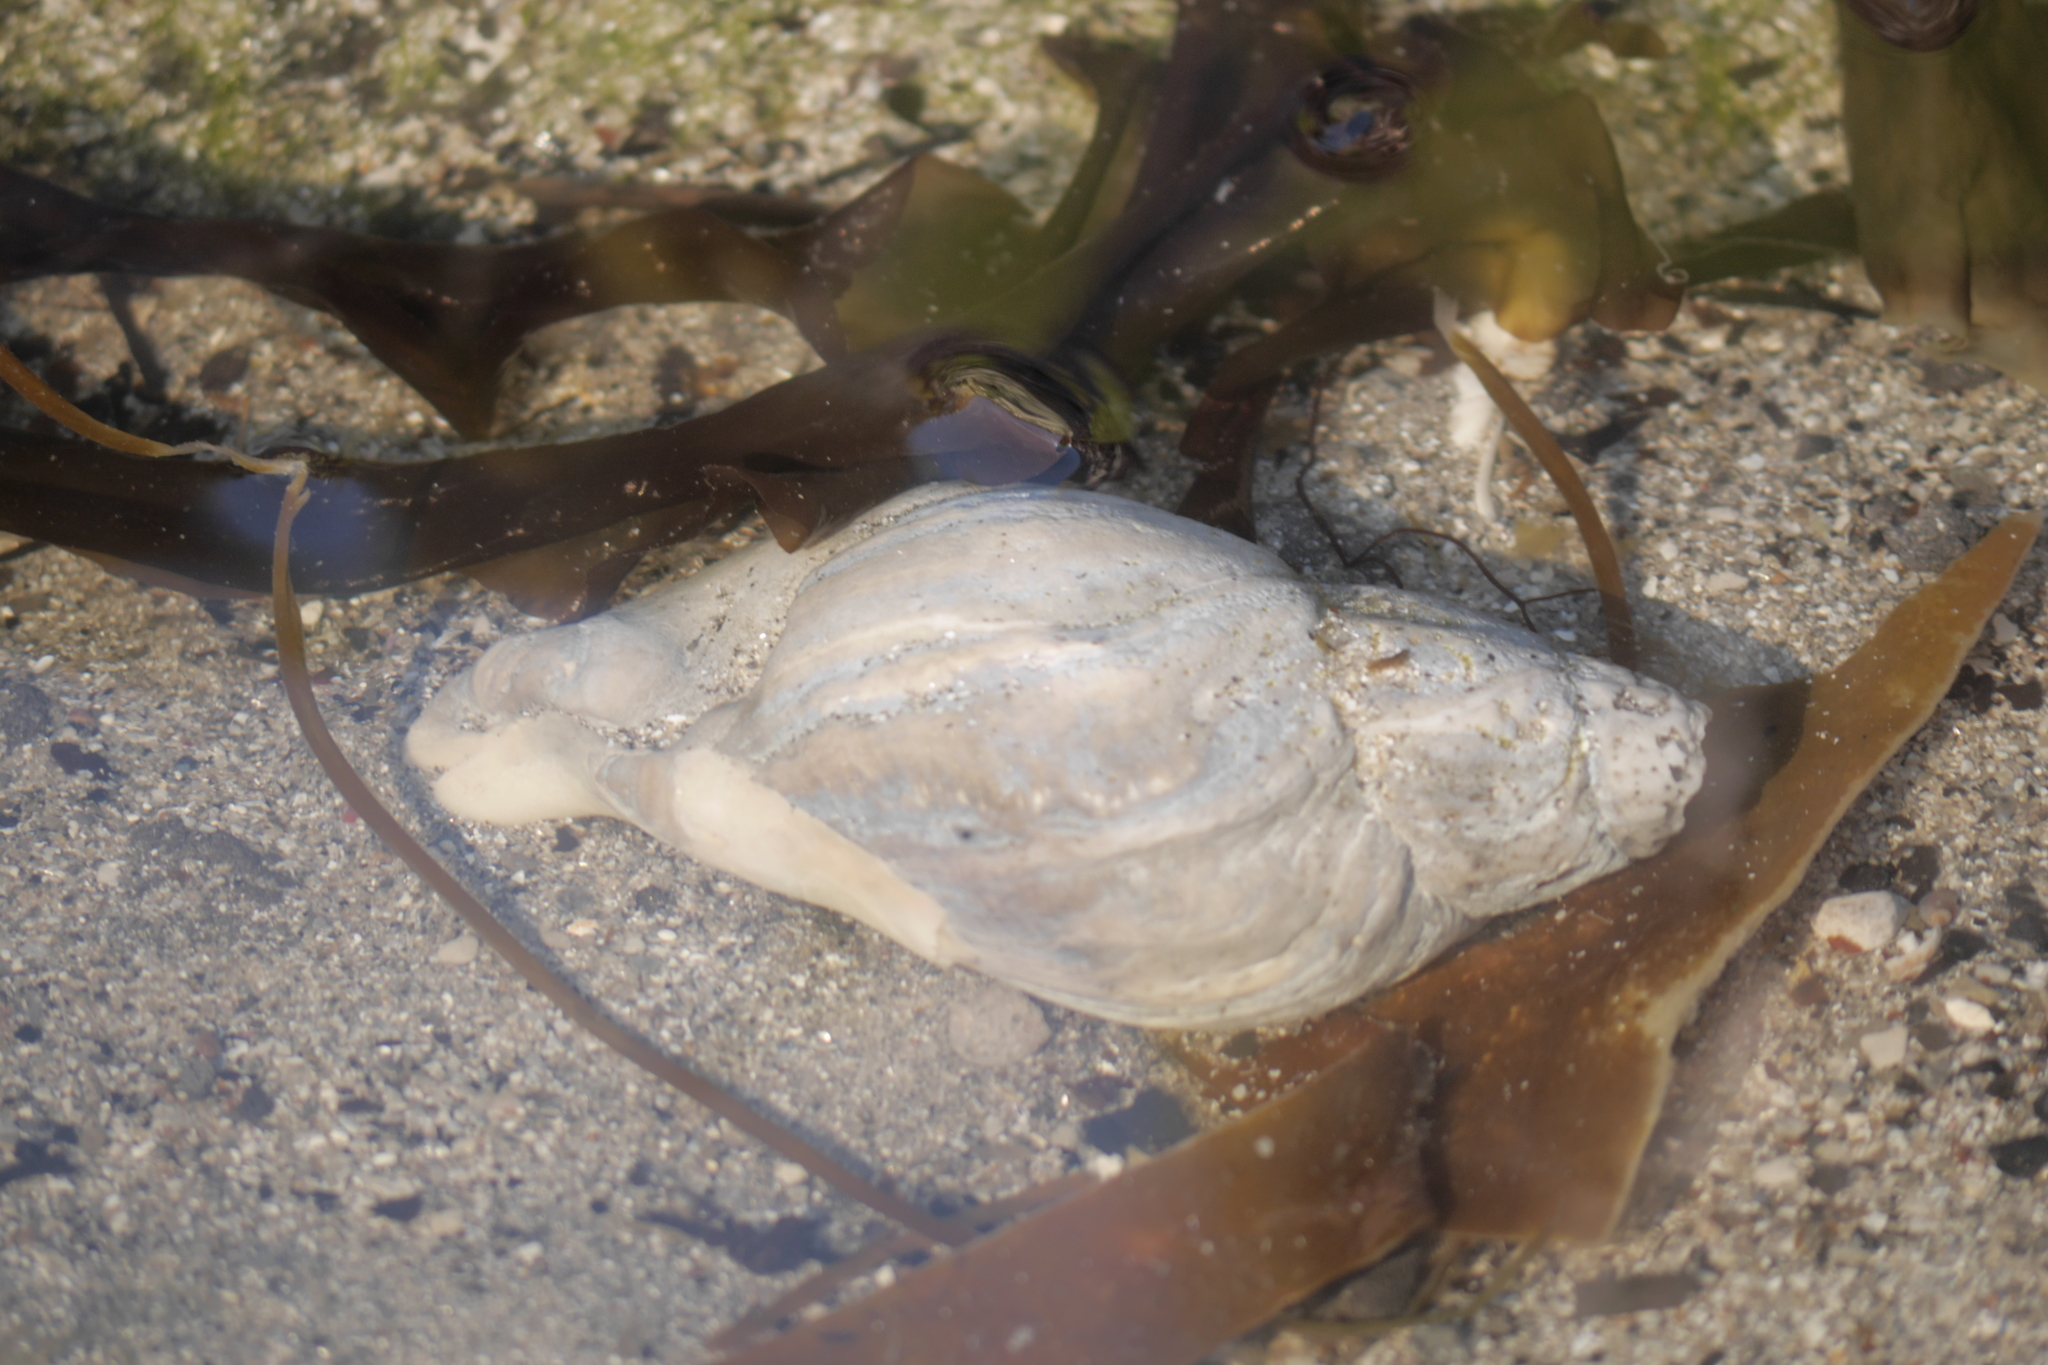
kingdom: Animalia
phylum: Mollusca
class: Gastropoda
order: Neogastropoda
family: Buccinidae
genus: Buccinum
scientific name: Buccinum undatum
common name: Common whelk
